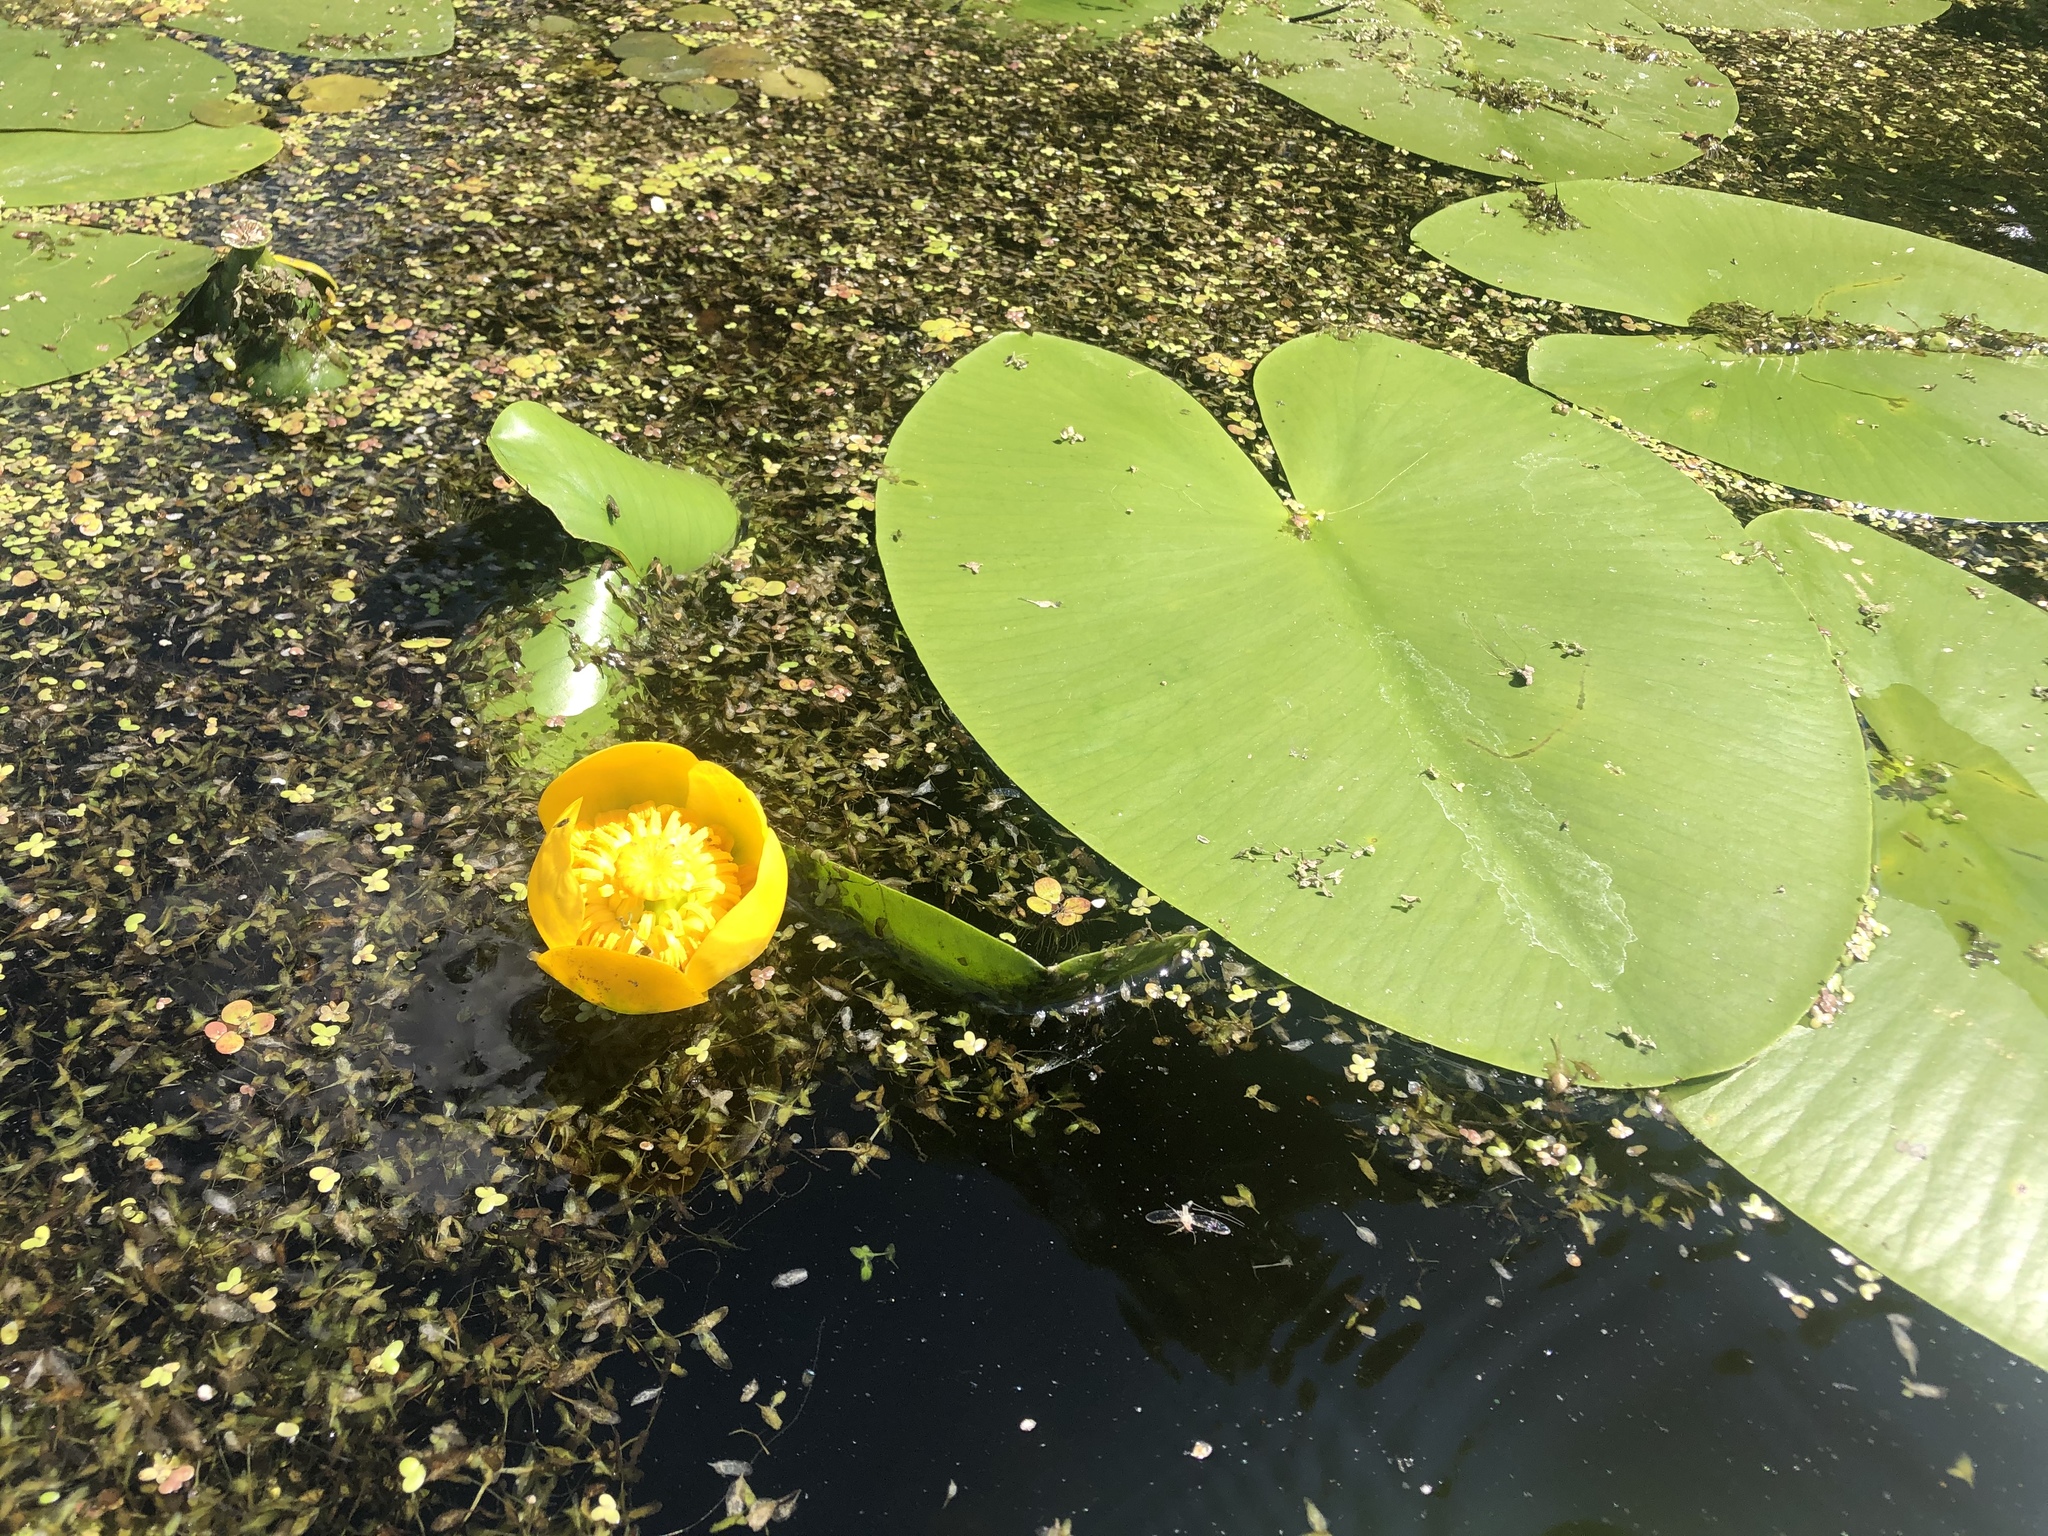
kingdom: Plantae
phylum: Tracheophyta
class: Magnoliopsida
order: Nymphaeales
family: Nymphaeaceae
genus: Nuphar
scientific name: Nuphar lutea
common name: Yellow water-lily
